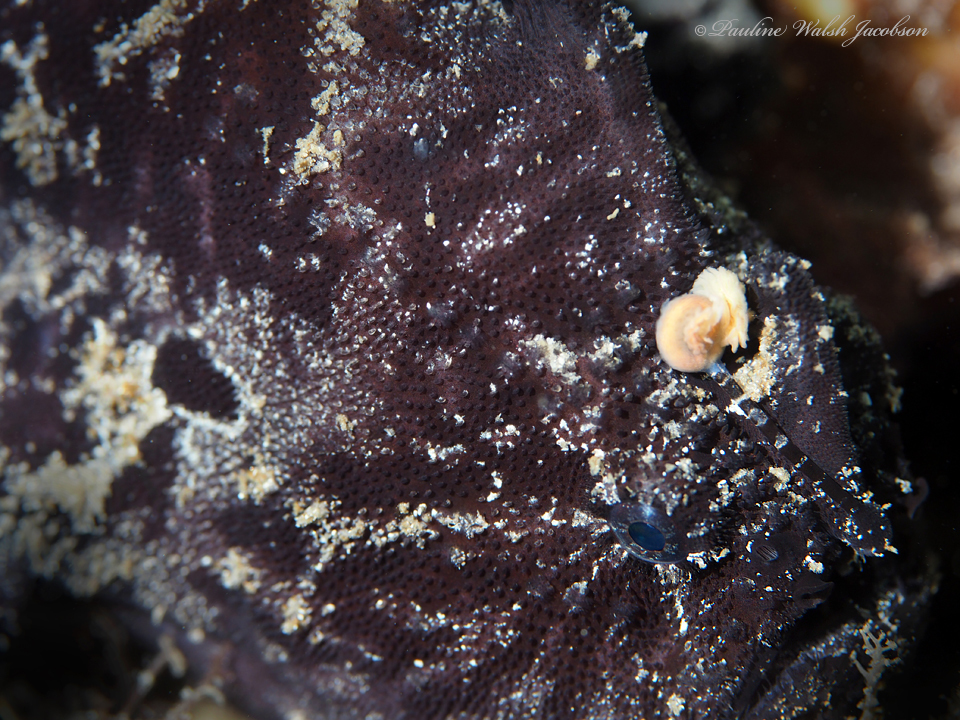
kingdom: Animalia
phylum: Chordata
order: Lophiiformes
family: Antennariidae
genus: Antennarius
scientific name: Antennarius striatus
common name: Striated frogfish
